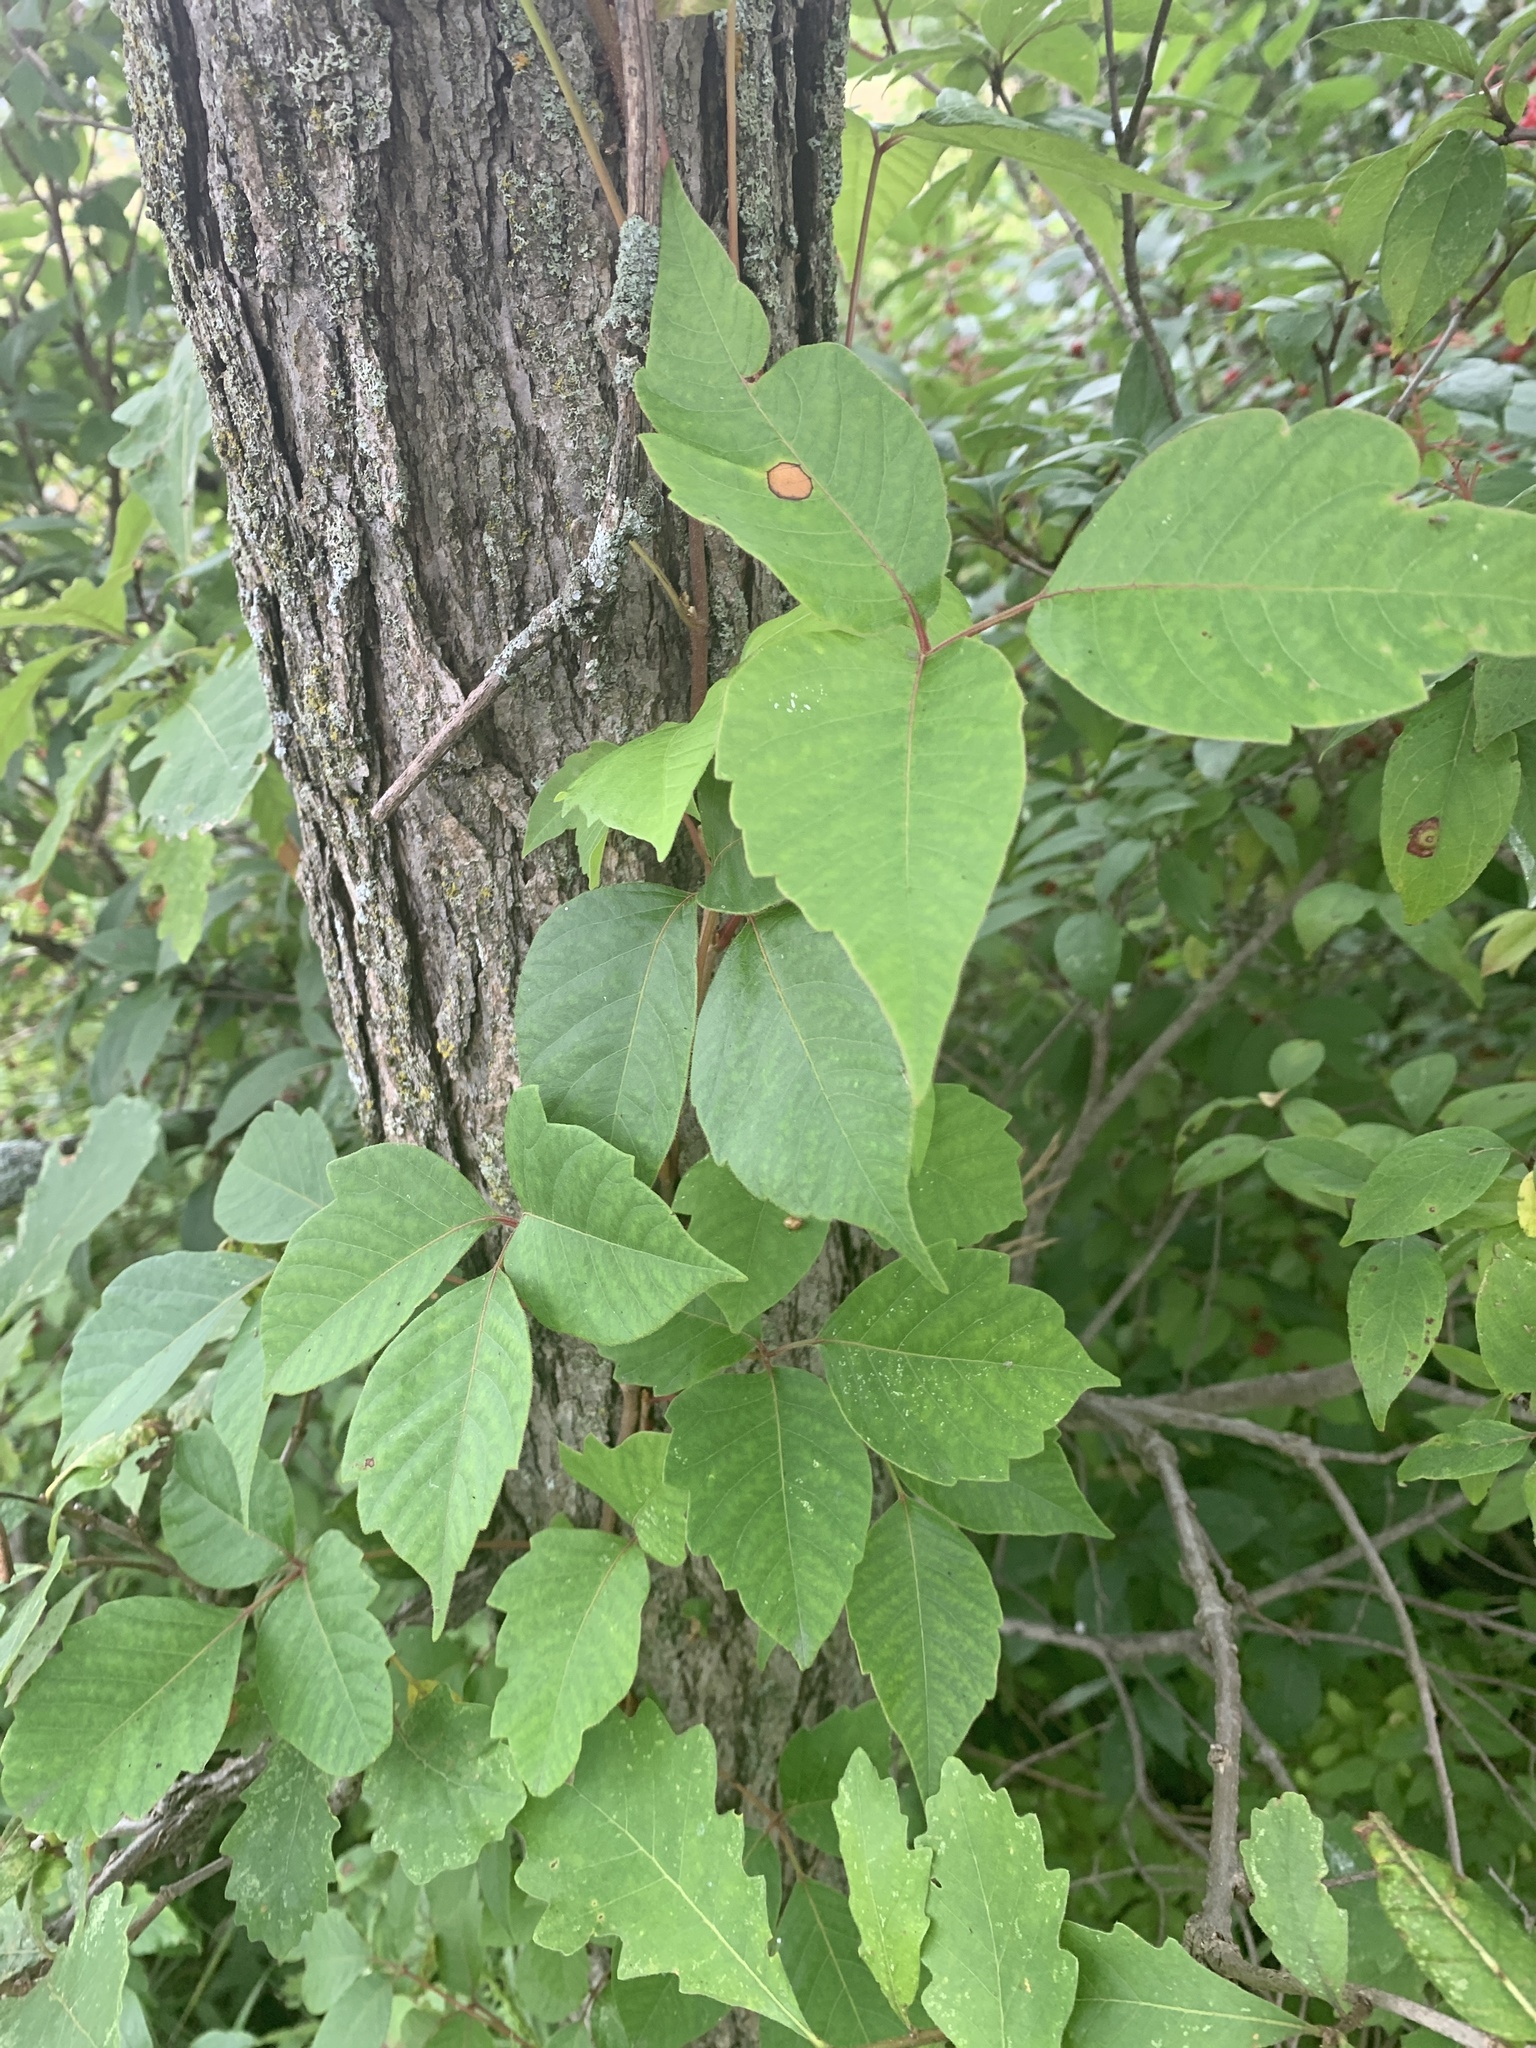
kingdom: Plantae
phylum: Tracheophyta
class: Magnoliopsida
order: Sapindales
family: Anacardiaceae
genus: Toxicodendron
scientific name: Toxicodendron radicans
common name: Poison ivy
